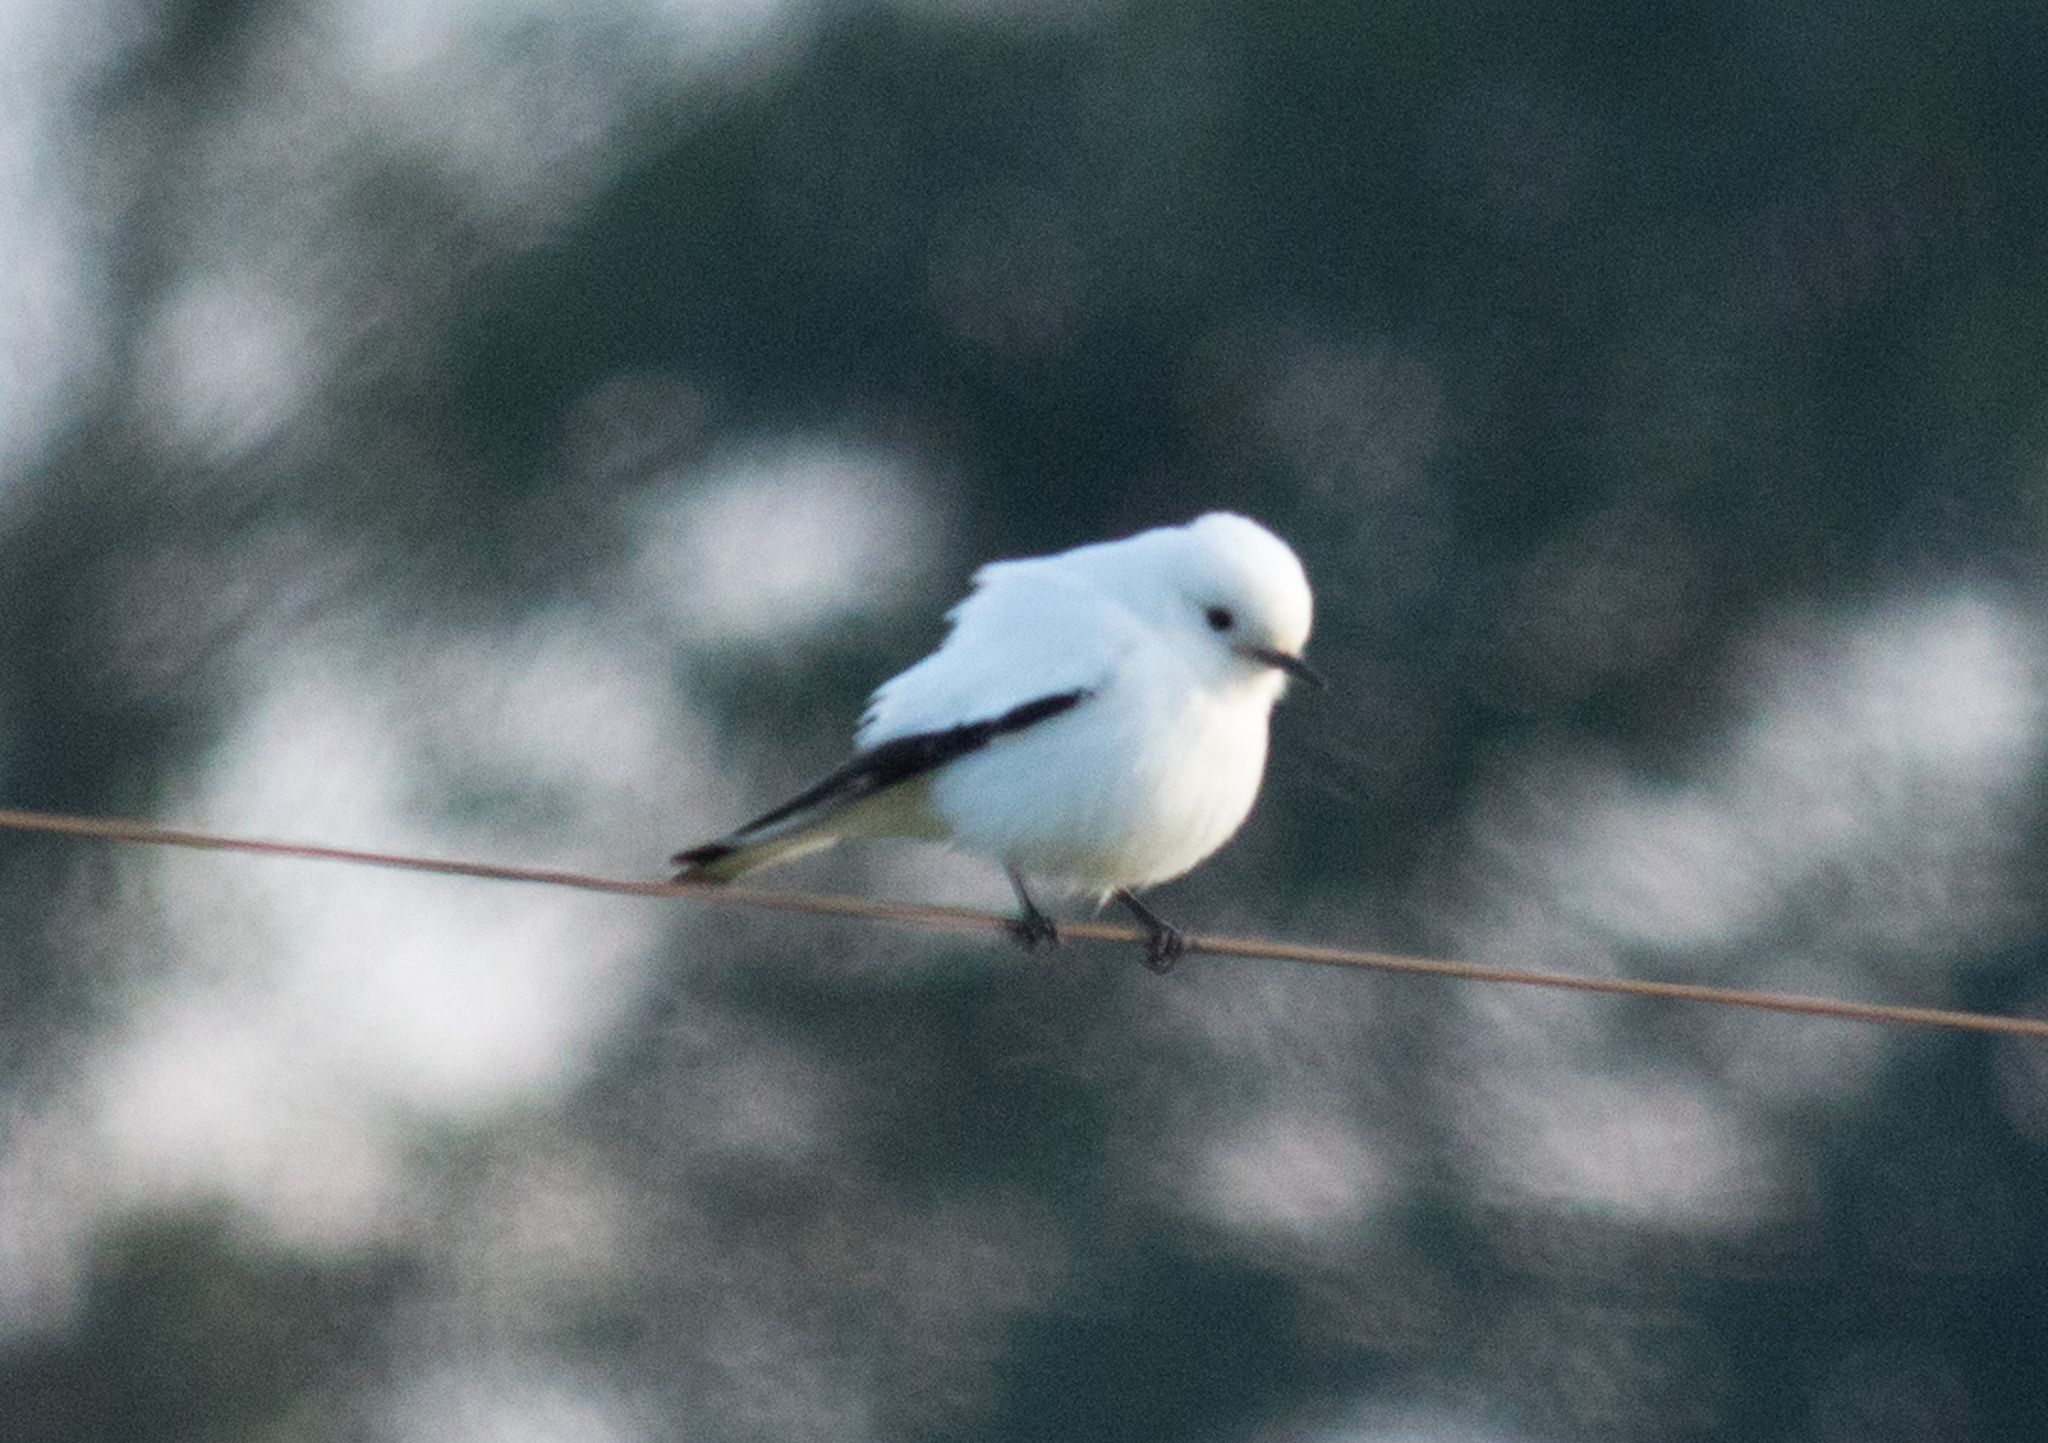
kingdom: Animalia
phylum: Chordata
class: Aves
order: Passeriformes
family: Tyrannidae
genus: Xolmis
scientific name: Xolmis irupero
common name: White monjita
